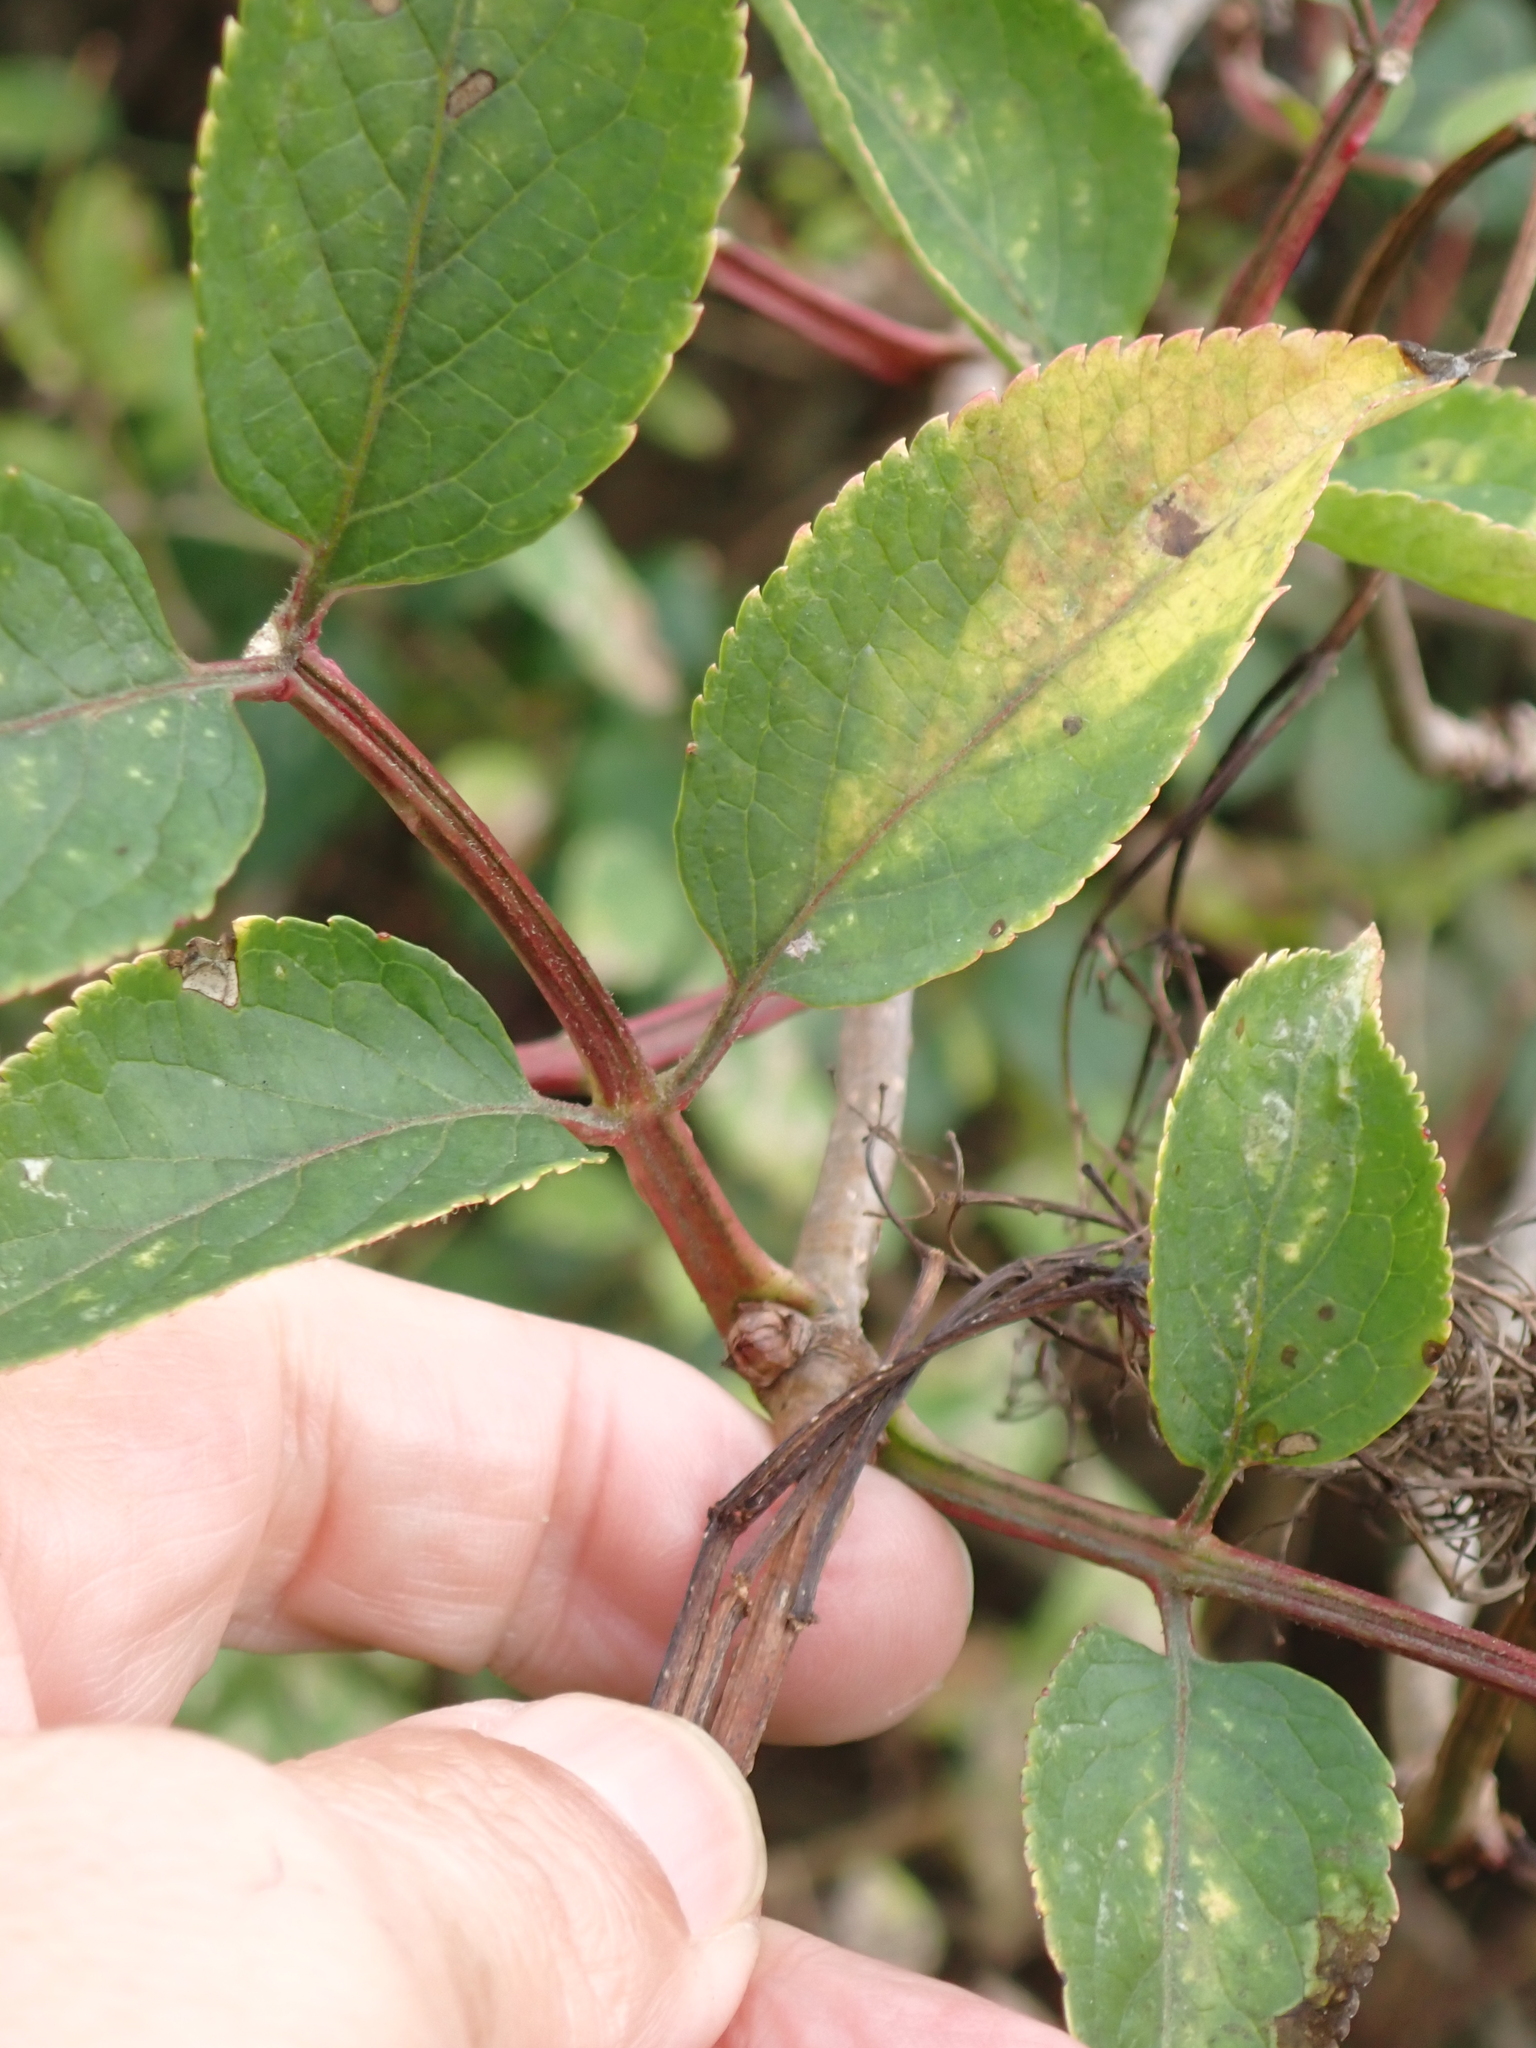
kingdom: Plantae
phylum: Tracheophyta
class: Magnoliopsida
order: Dipsacales
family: Viburnaceae
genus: Sambucus
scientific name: Sambucus nigra
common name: Elder
